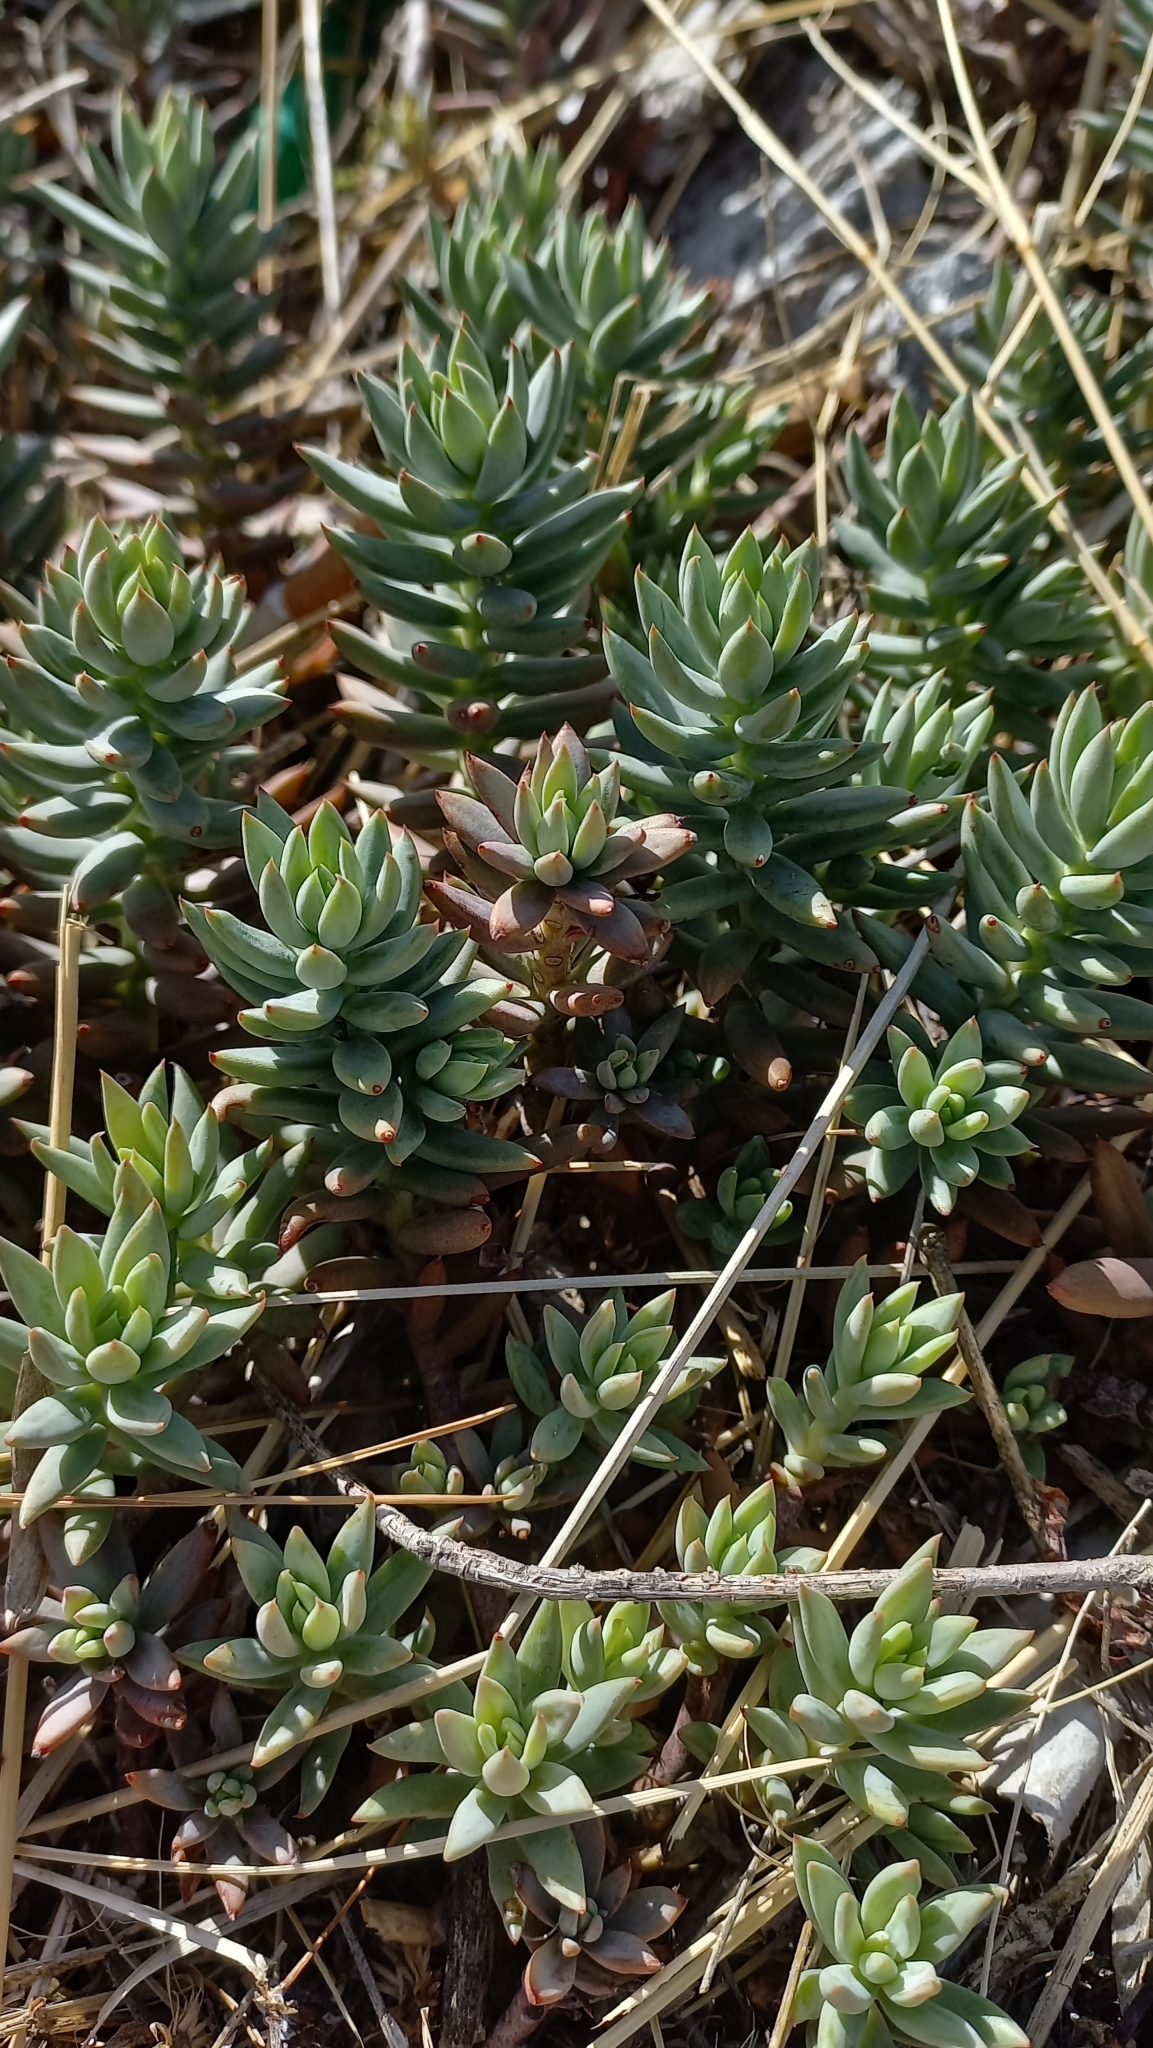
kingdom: Plantae
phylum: Tracheophyta
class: Magnoliopsida
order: Saxifragales
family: Crassulaceae
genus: Petrosedum
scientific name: Petrosedum sediforme
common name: Pale stonecrop
